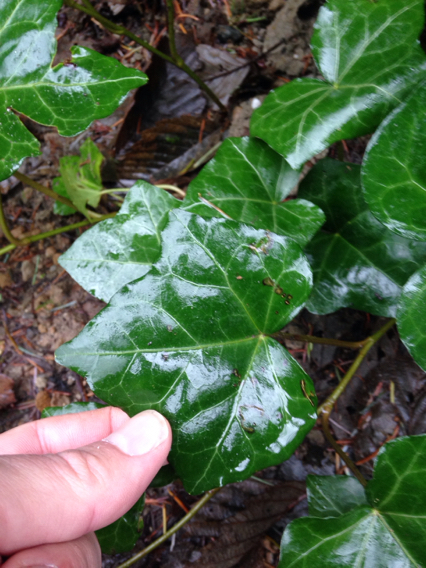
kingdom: Plantae
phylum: Tracheophyta
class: Magnoliopsida
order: Apiales
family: Araliaceae
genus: Hedera
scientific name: Hedera helix
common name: Ivy
